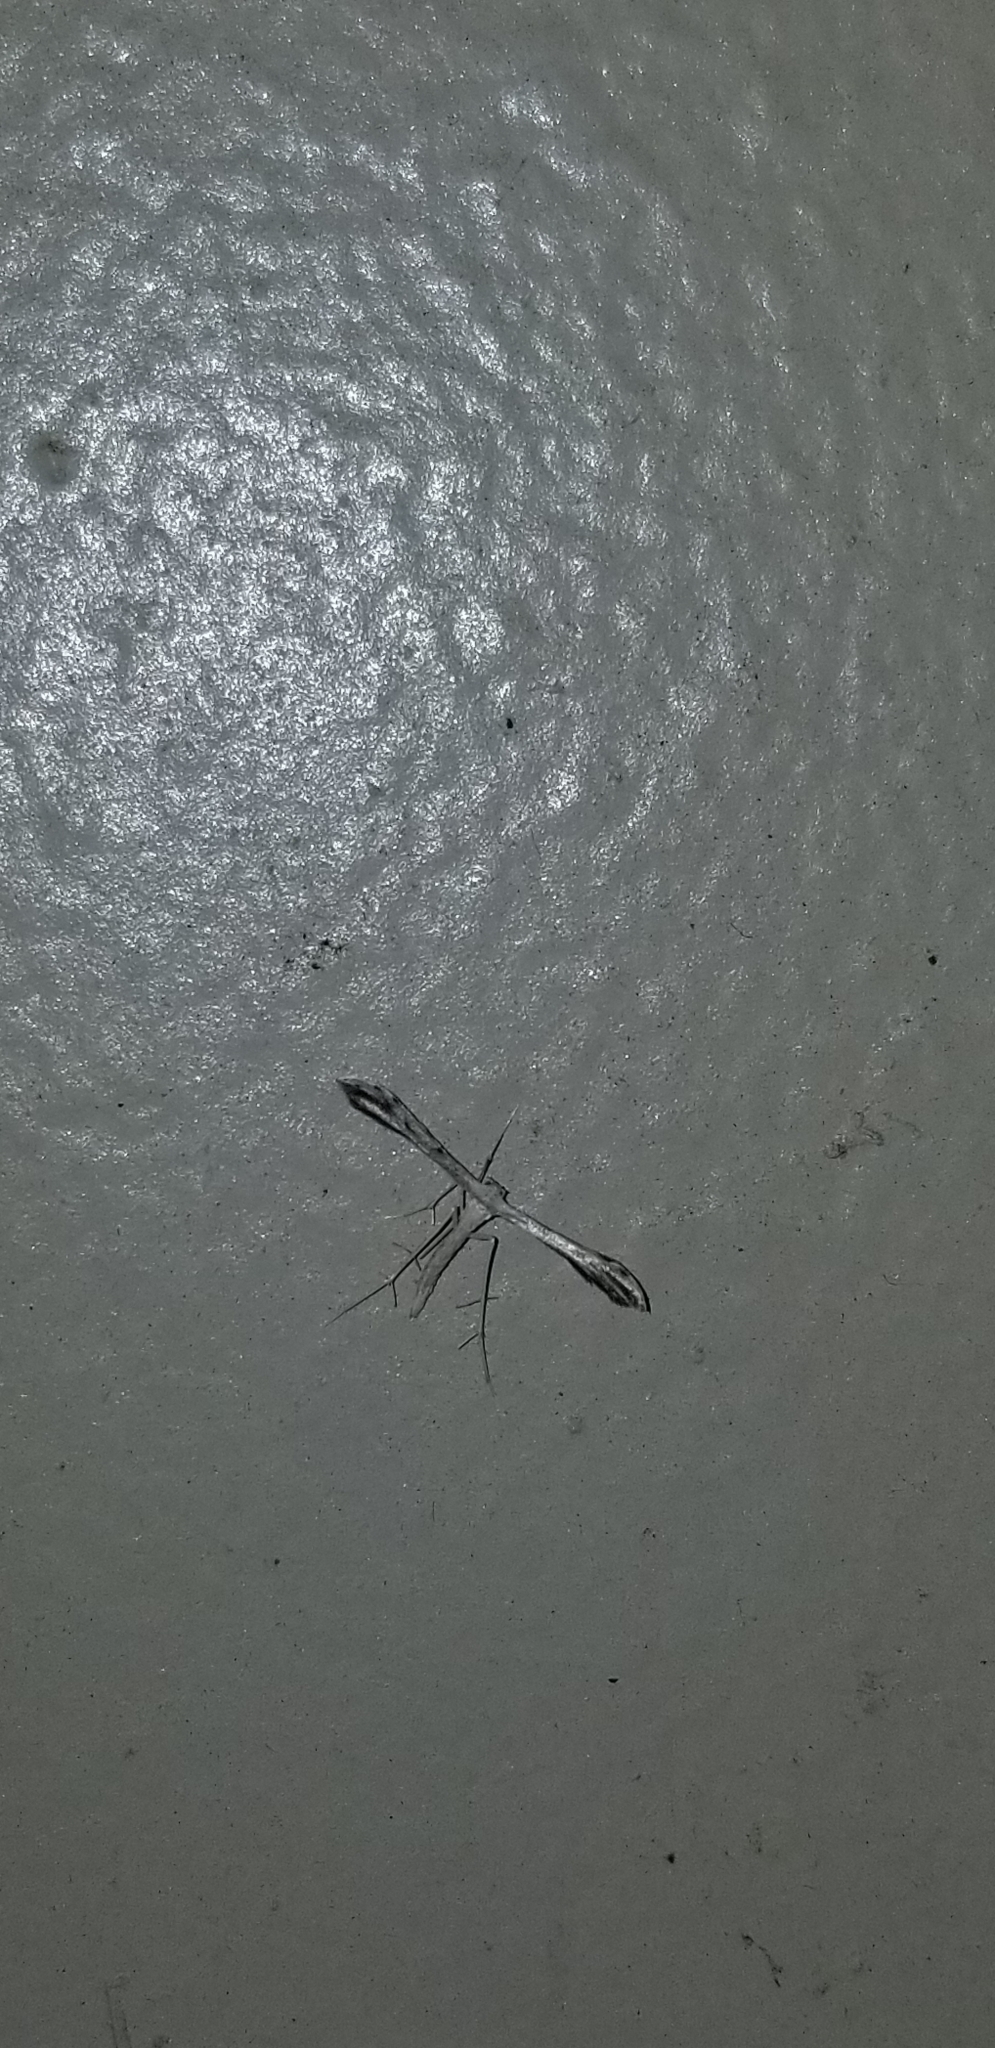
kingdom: Animalia
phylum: Arthropoda
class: Insecta
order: Lepidoptera
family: Pterophoridae
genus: Pselnophorus
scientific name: Pselnophorus belfragei
